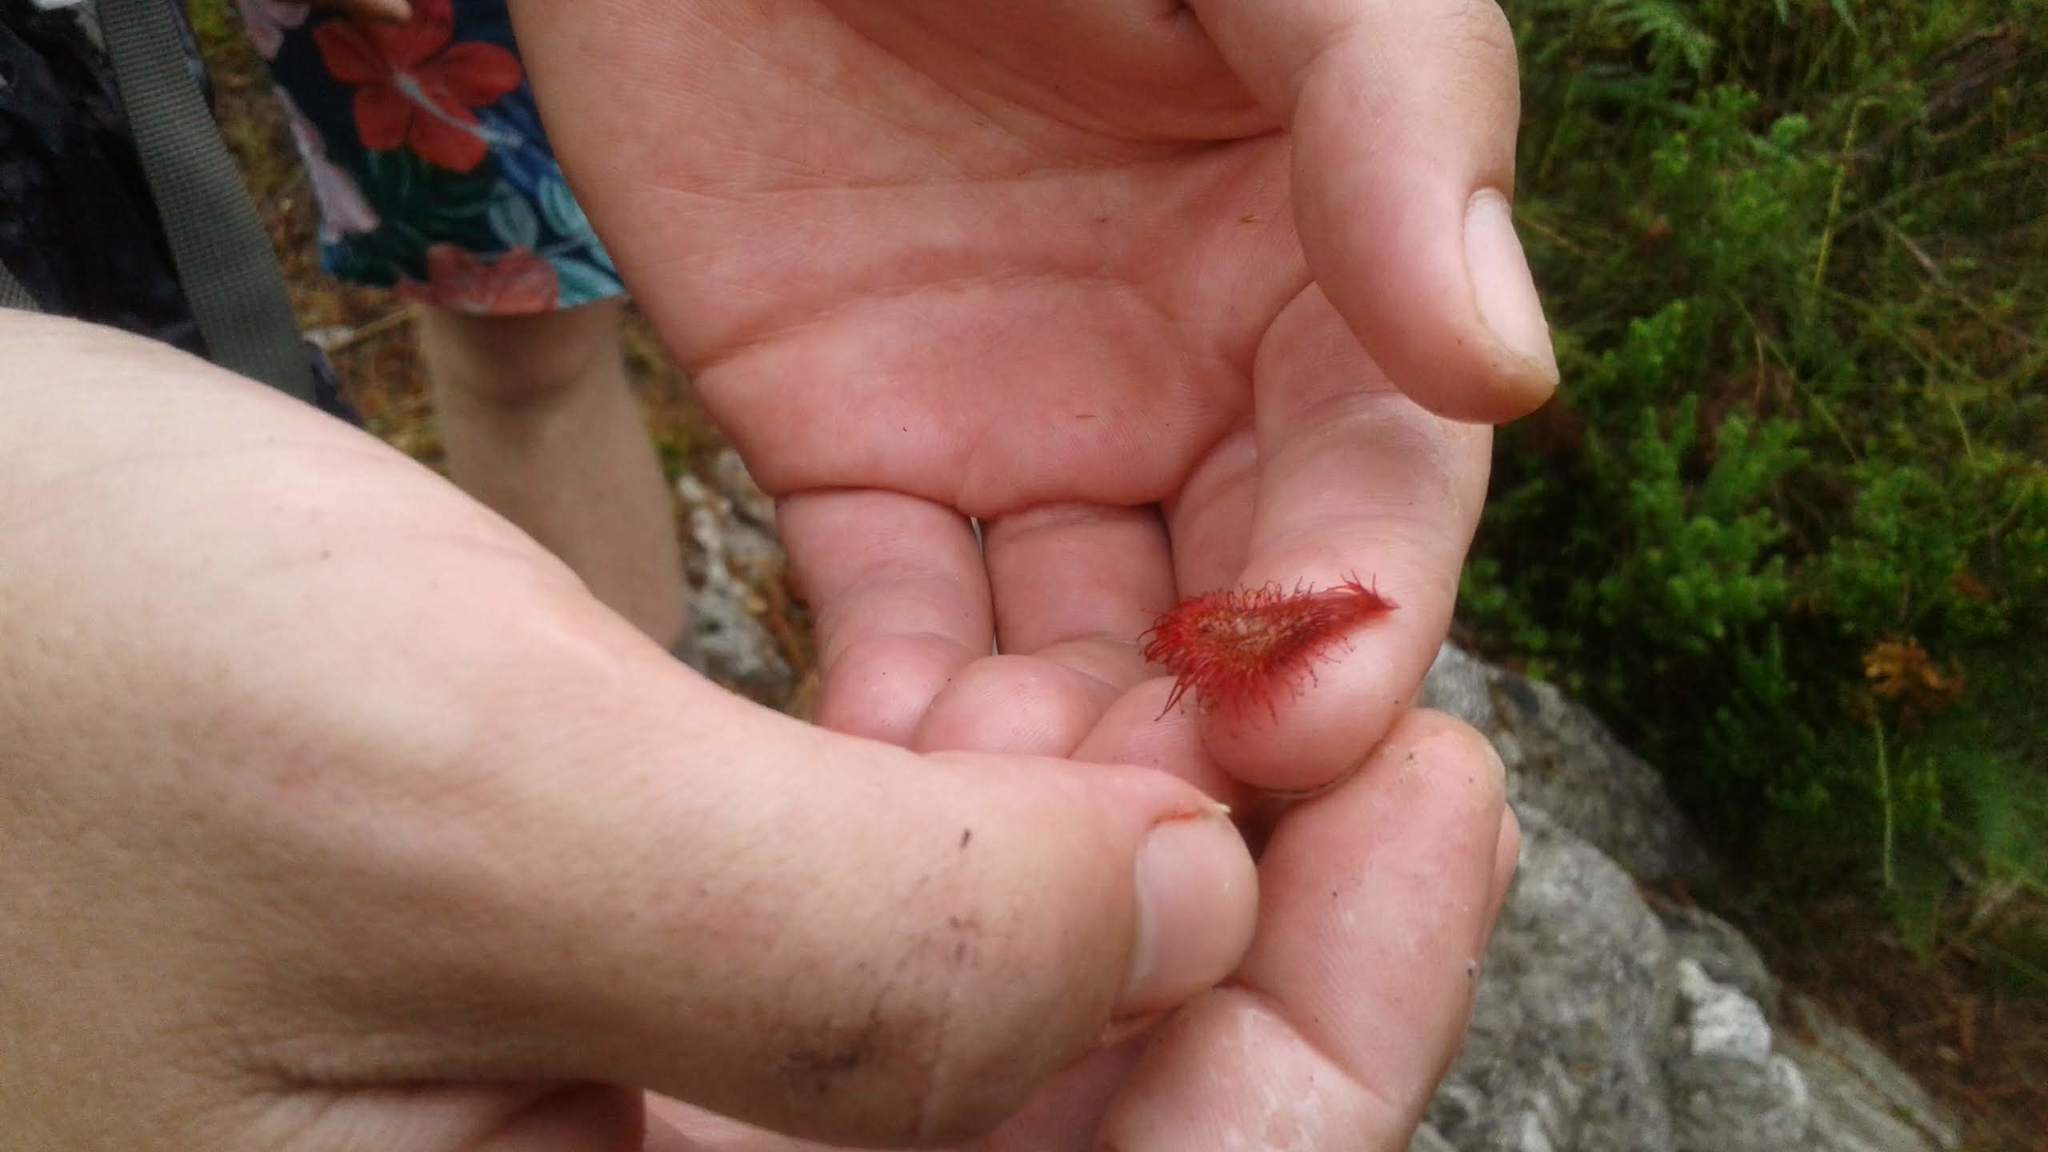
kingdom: Plantae
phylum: Tracheophyta
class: Magnoliopsida
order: Caryophyllales
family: Droseraceae
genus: Drosera
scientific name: Drosera slackii
